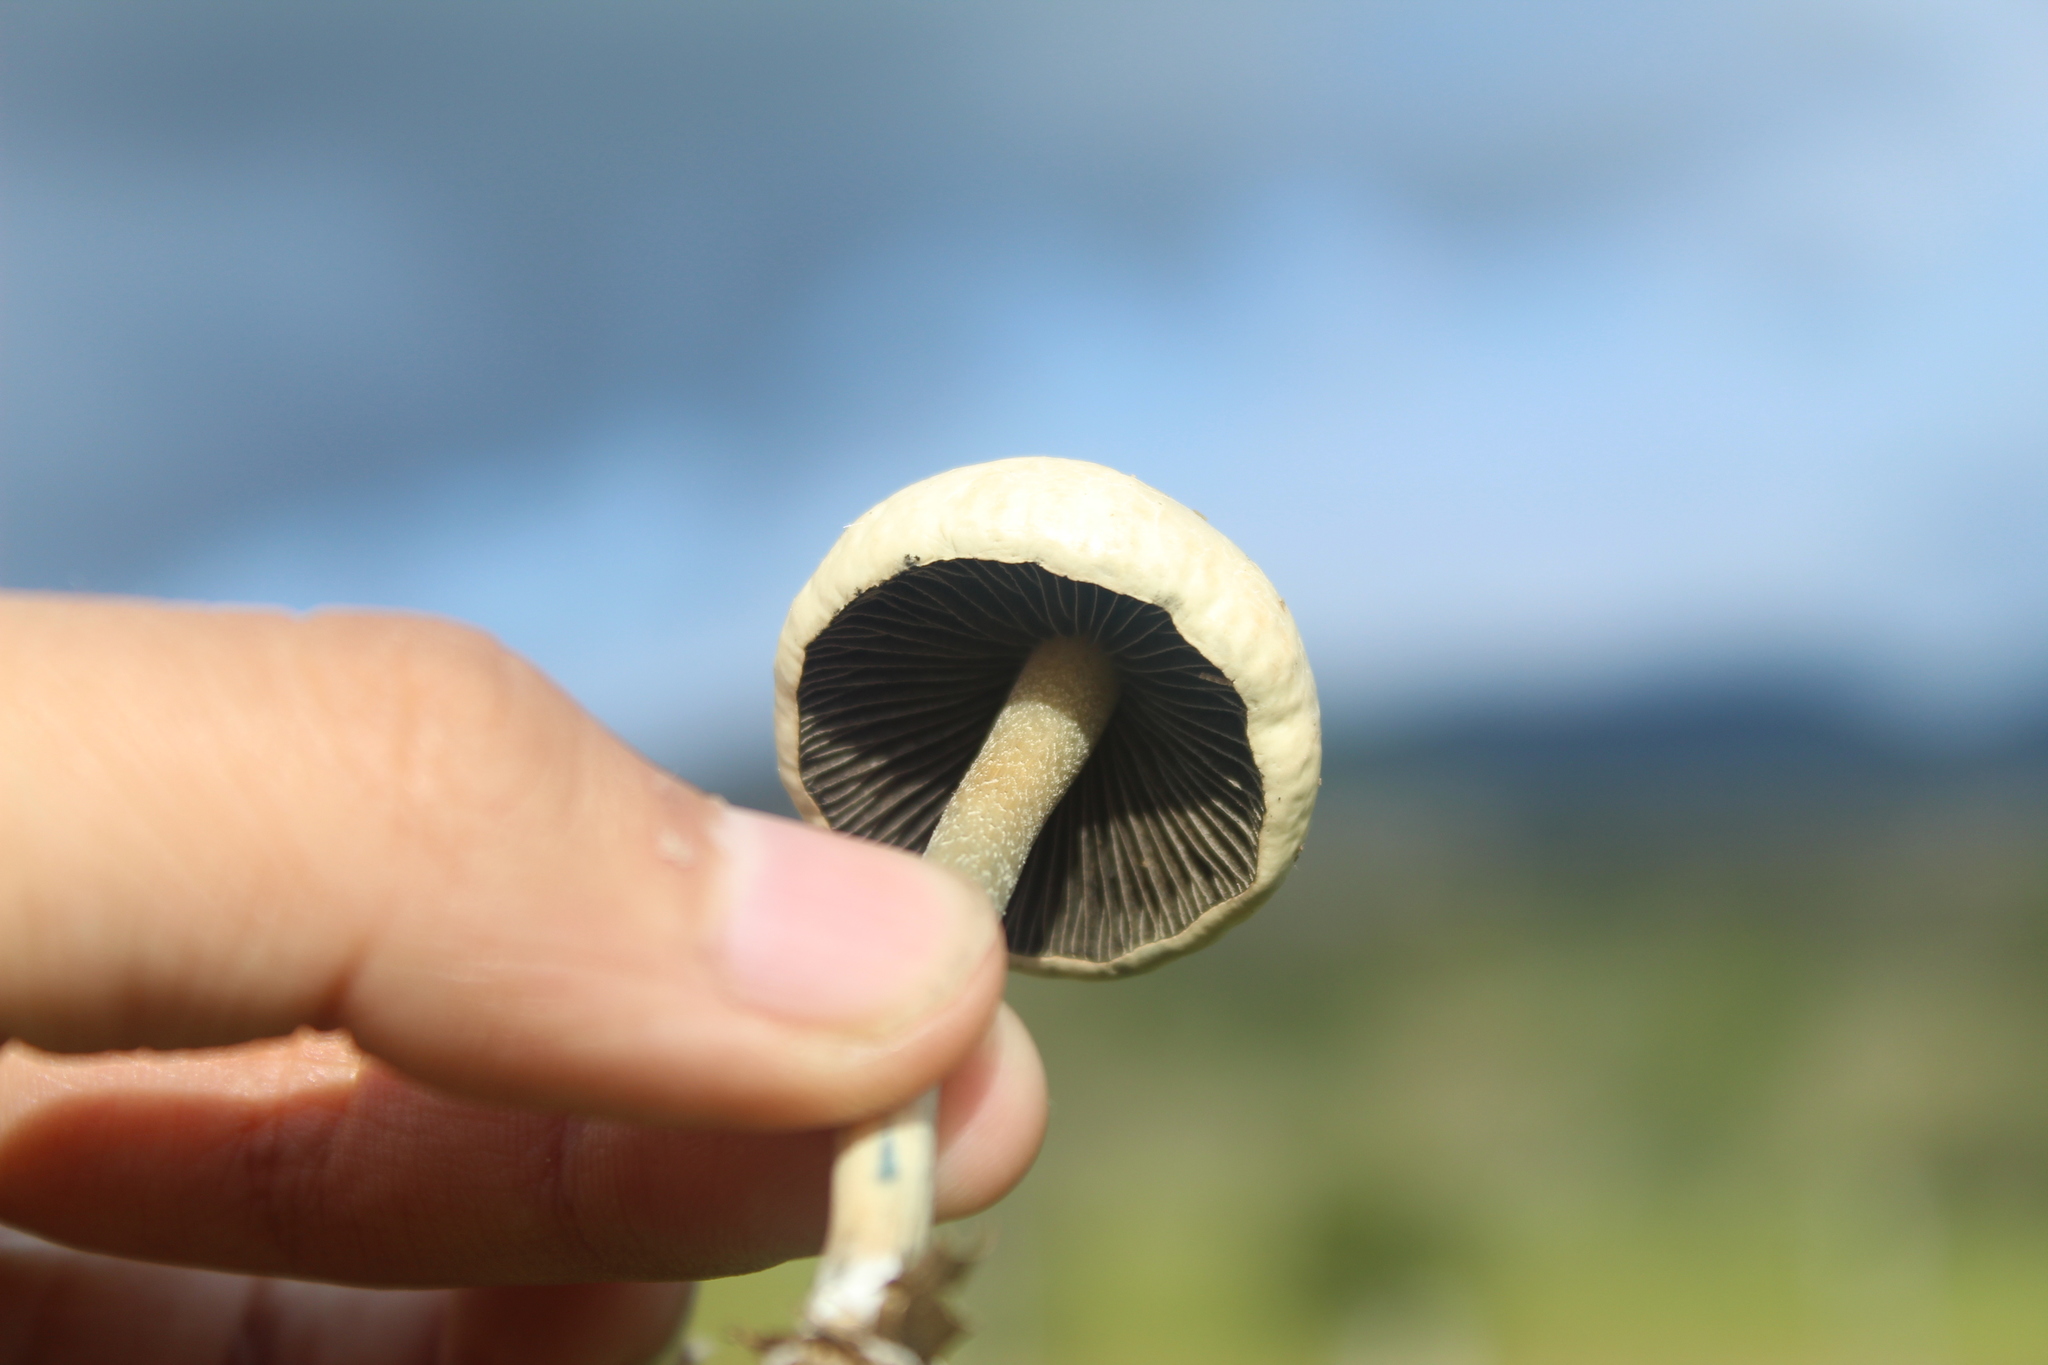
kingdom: Fungi
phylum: Basidiomycota
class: Agaricomycetes
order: Agaricales
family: Bolbitiaceae
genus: Panaeolus
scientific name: Panaeolus cambodginiensis
